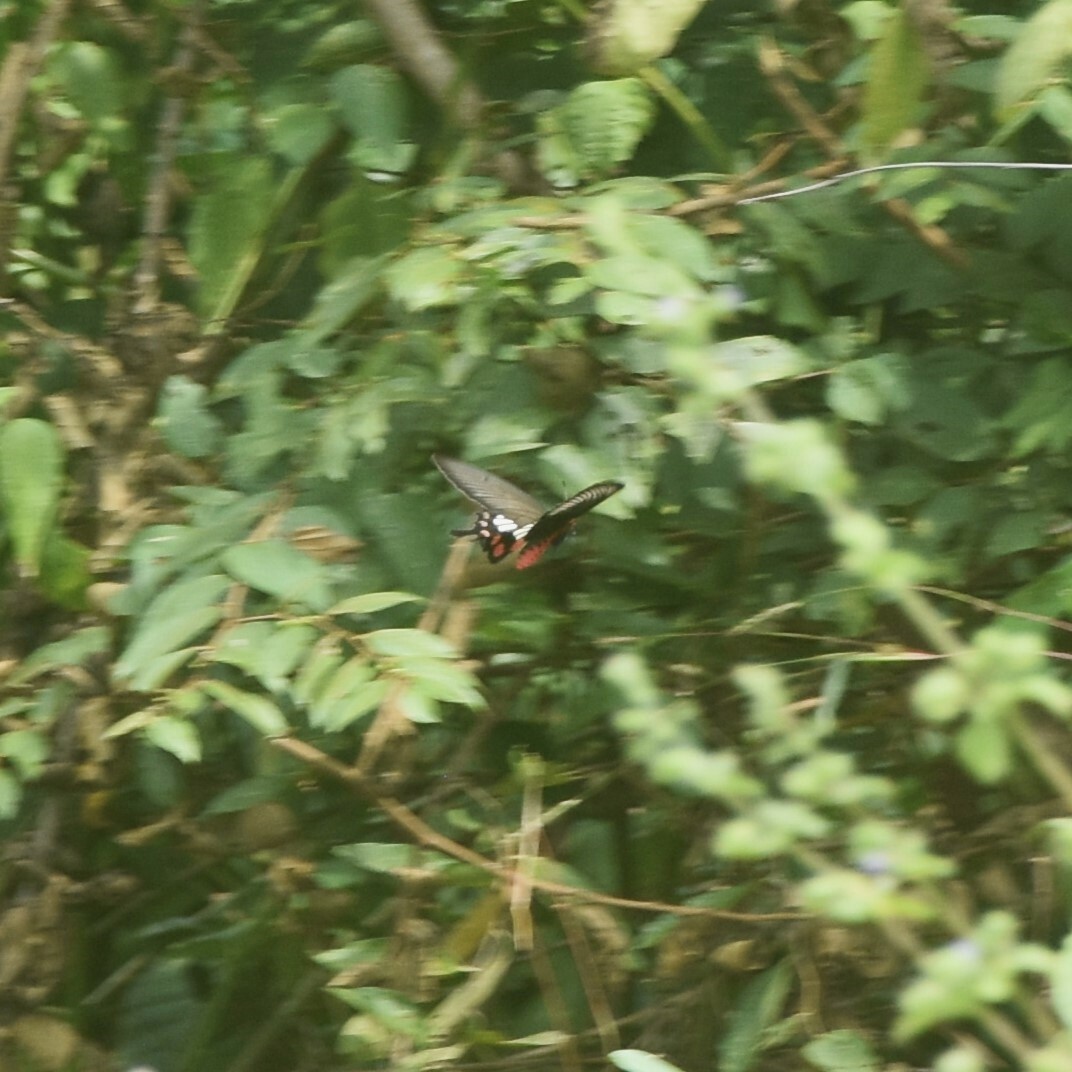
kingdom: Animalia
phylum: Arthropoda
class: Insecta
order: Lepidoptera
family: Papilionidae
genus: Pachliopta
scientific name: Pachliopta aristolochiae
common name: Common rose
